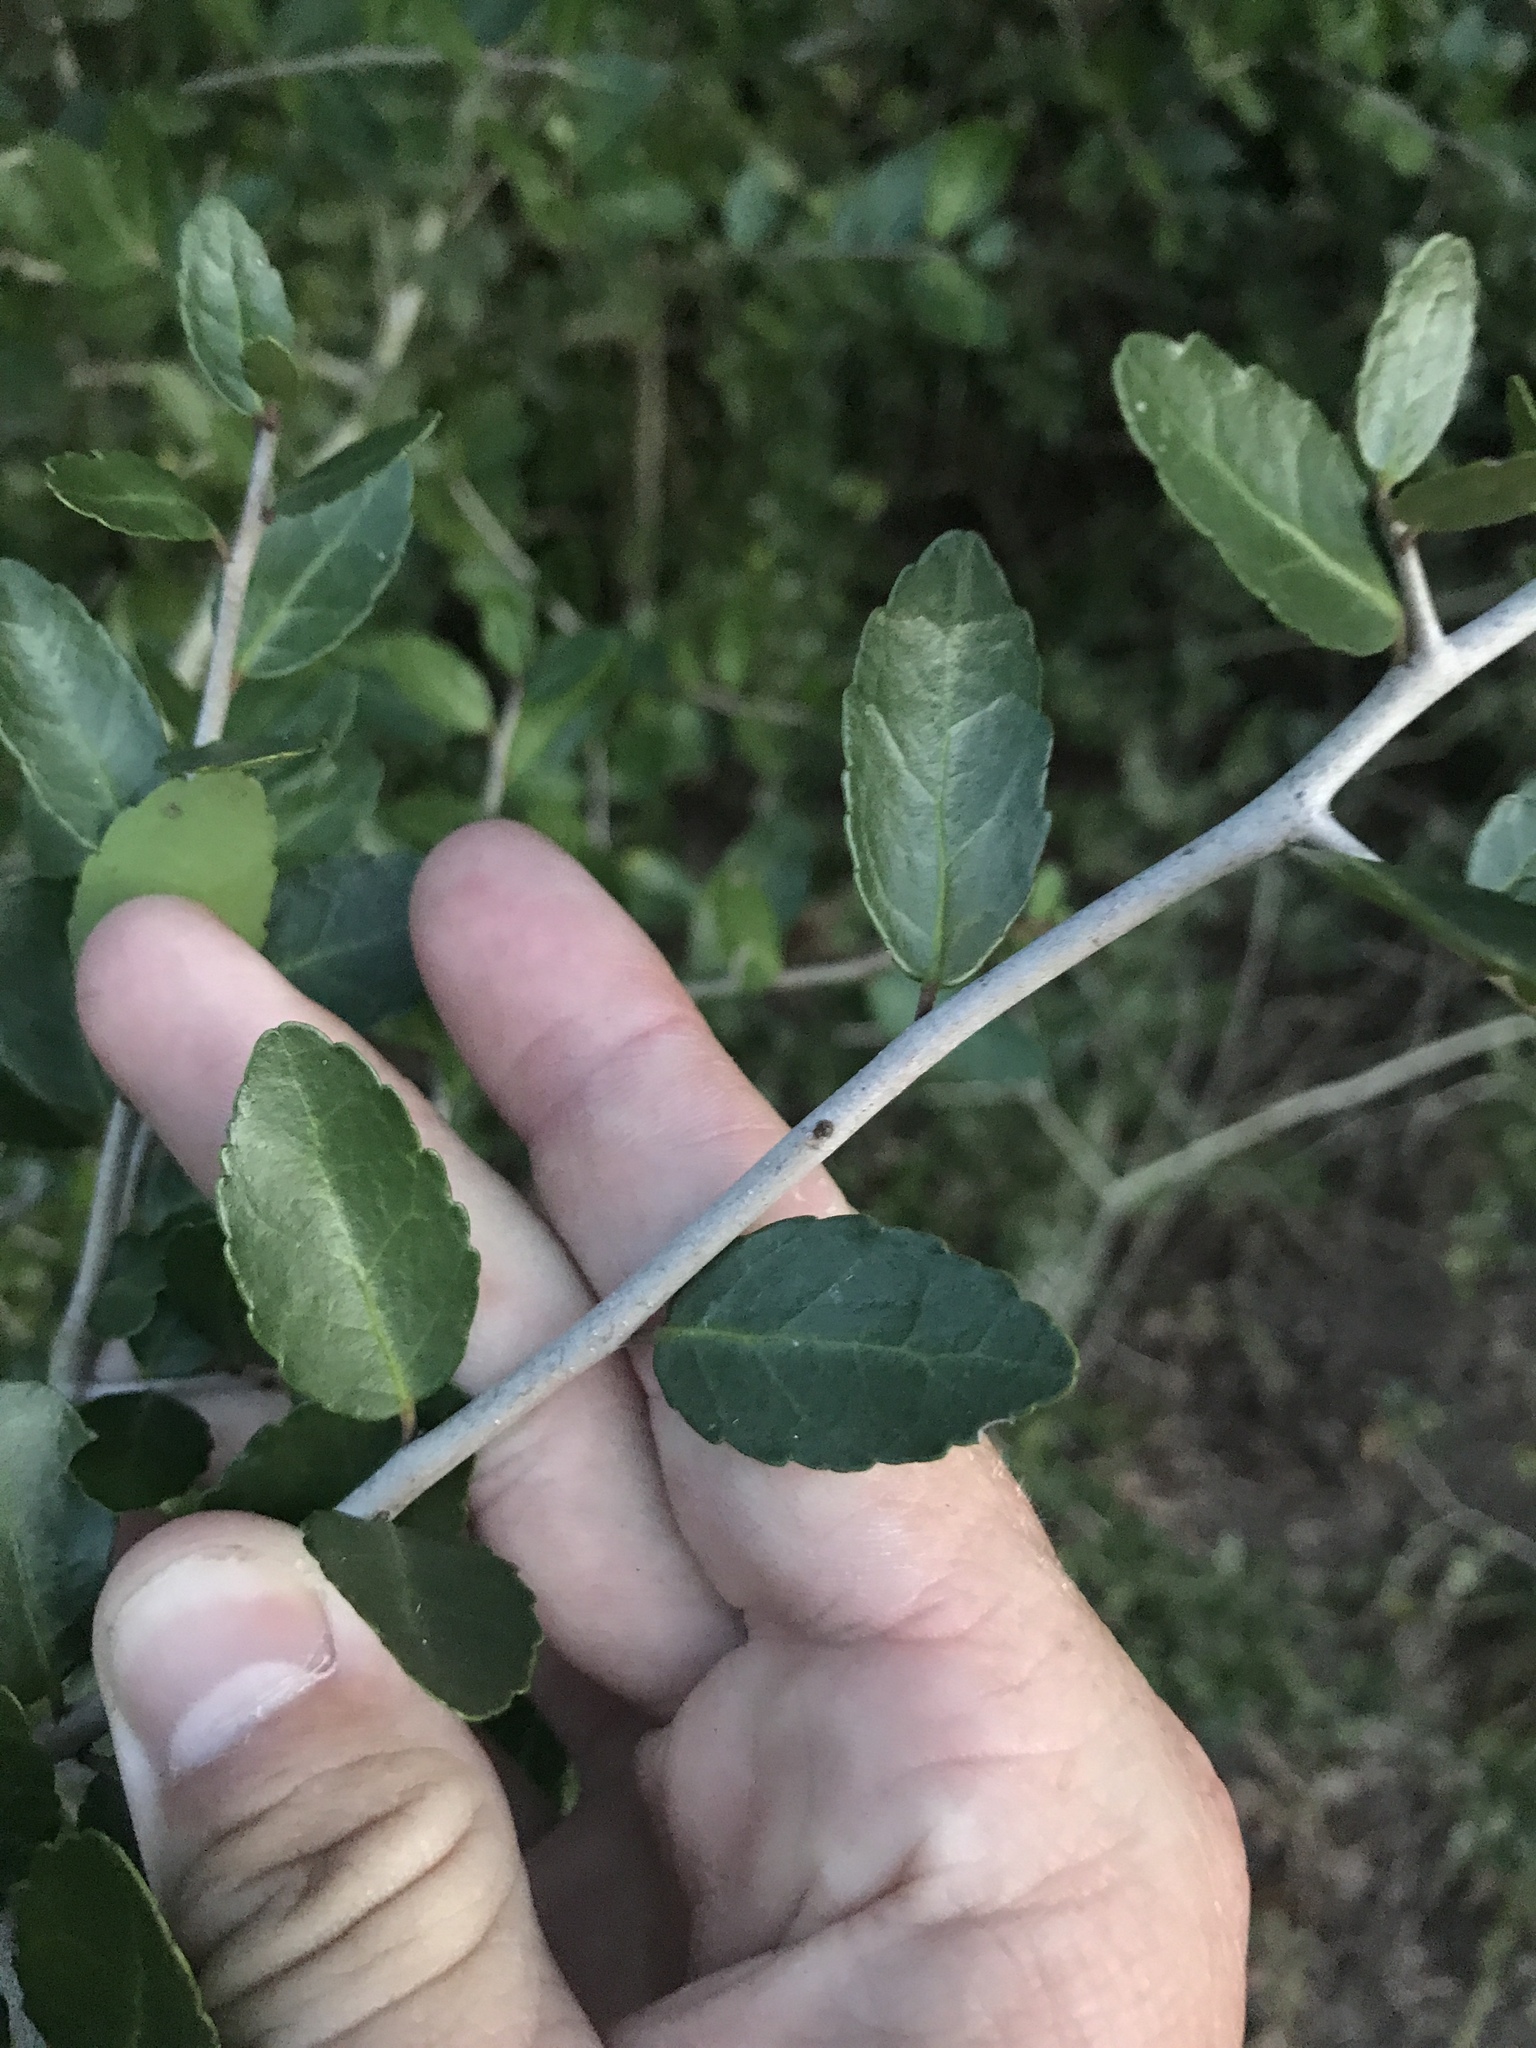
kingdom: Plantae
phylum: Tracheophyta
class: Magnoliopsida
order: Aquifoliales
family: Aquifoliaceae
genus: Ilex
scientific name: Ilex vomitoria
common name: Yaupon holly
